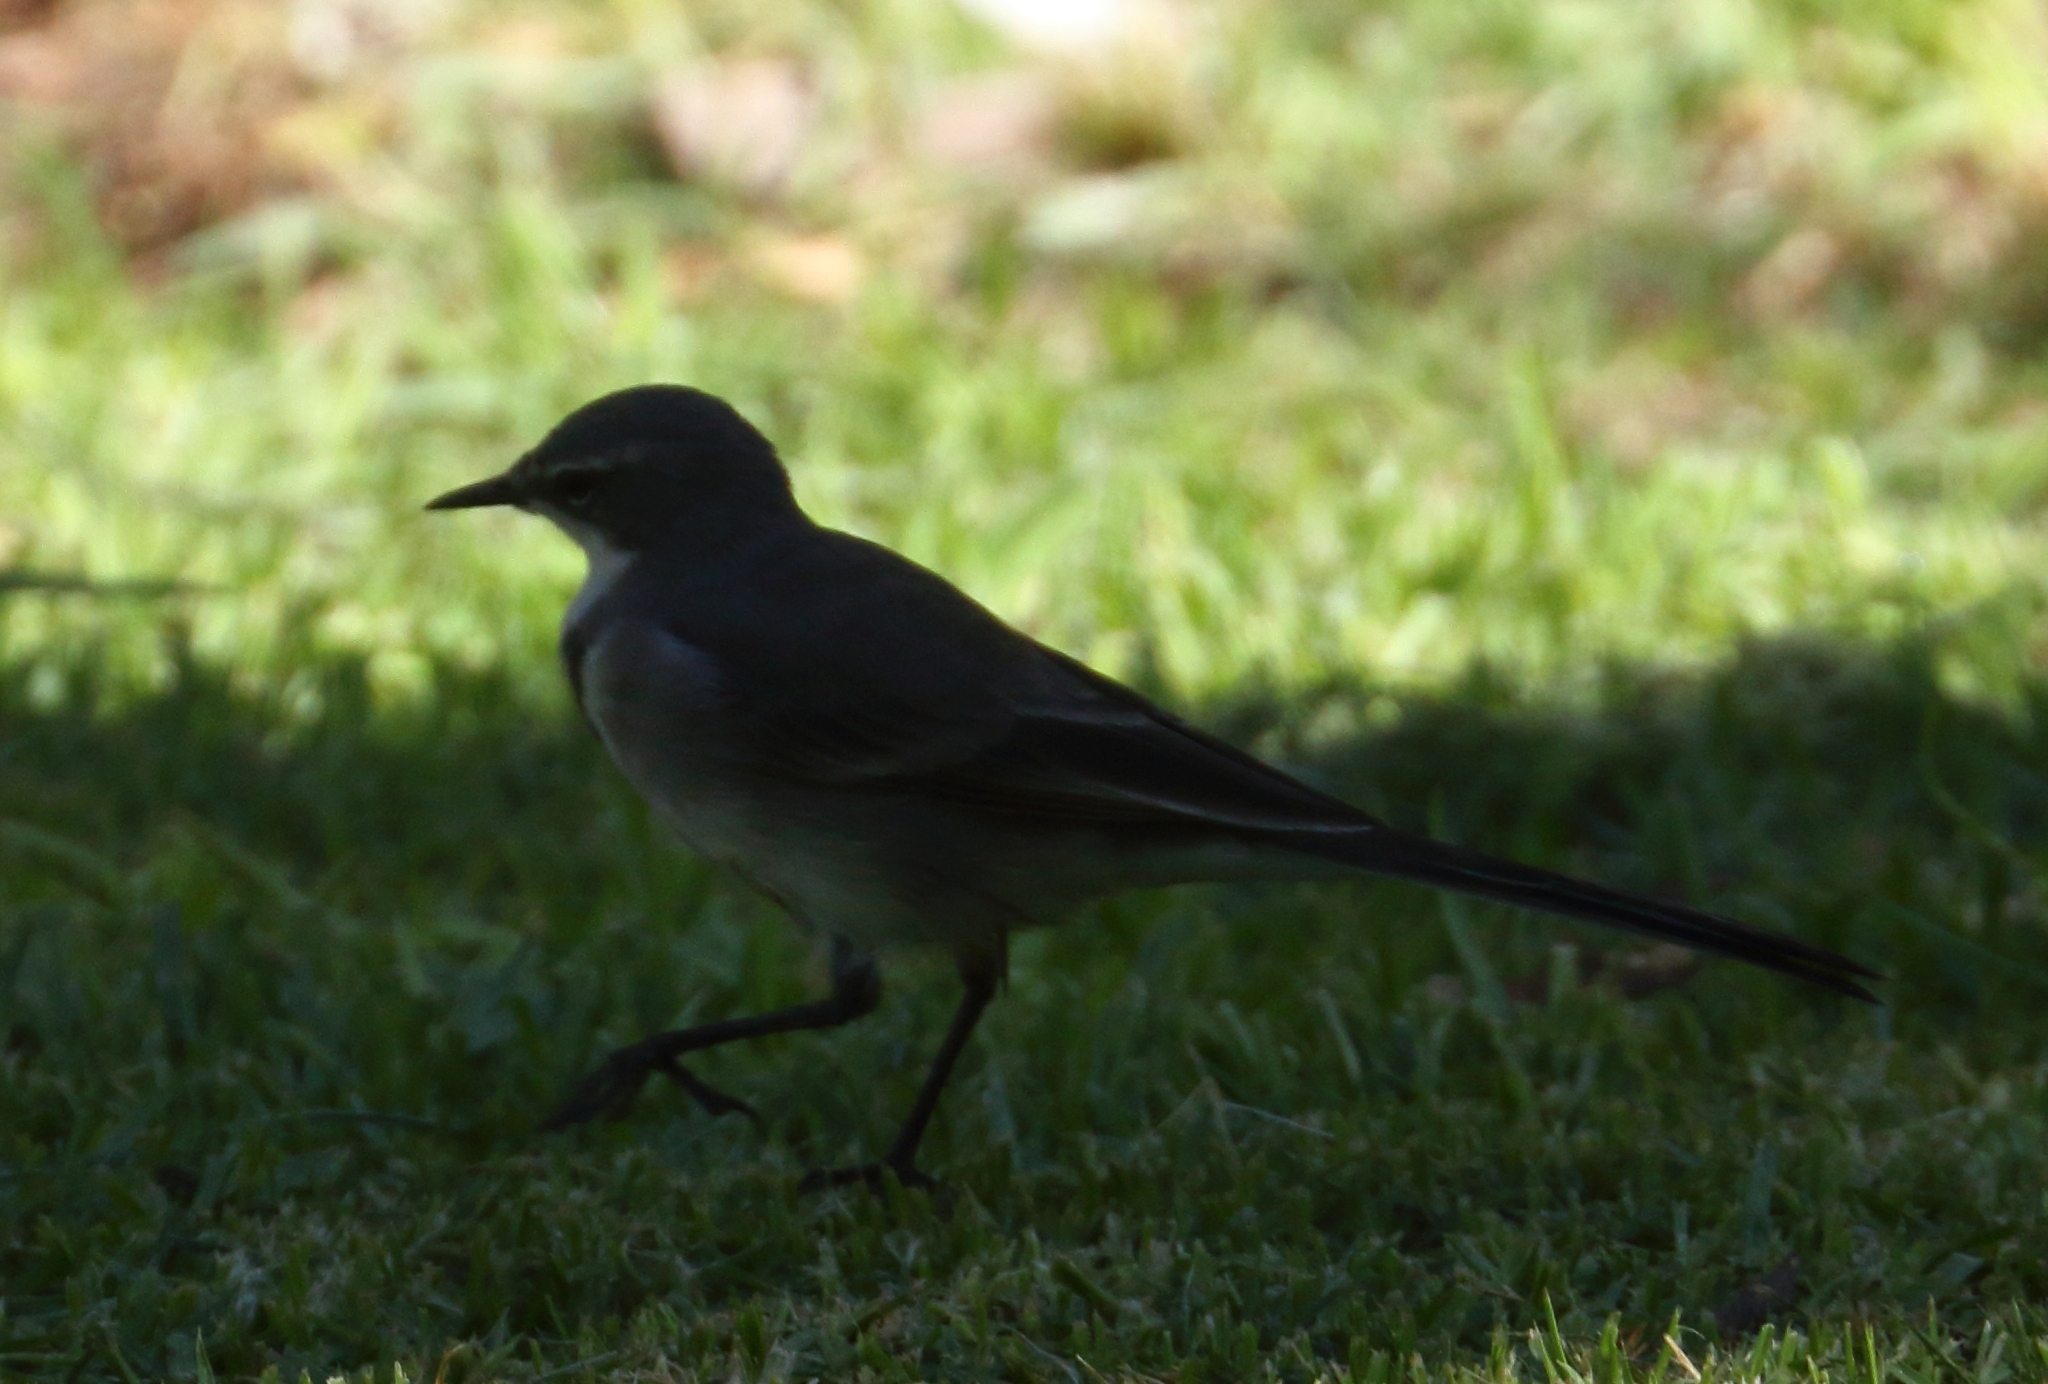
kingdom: Animalia
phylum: Chordata
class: Aves
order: Passeriformes
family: Motacillidae
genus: Motacilla
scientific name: Motacilla capensis
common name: Cape wagtail
